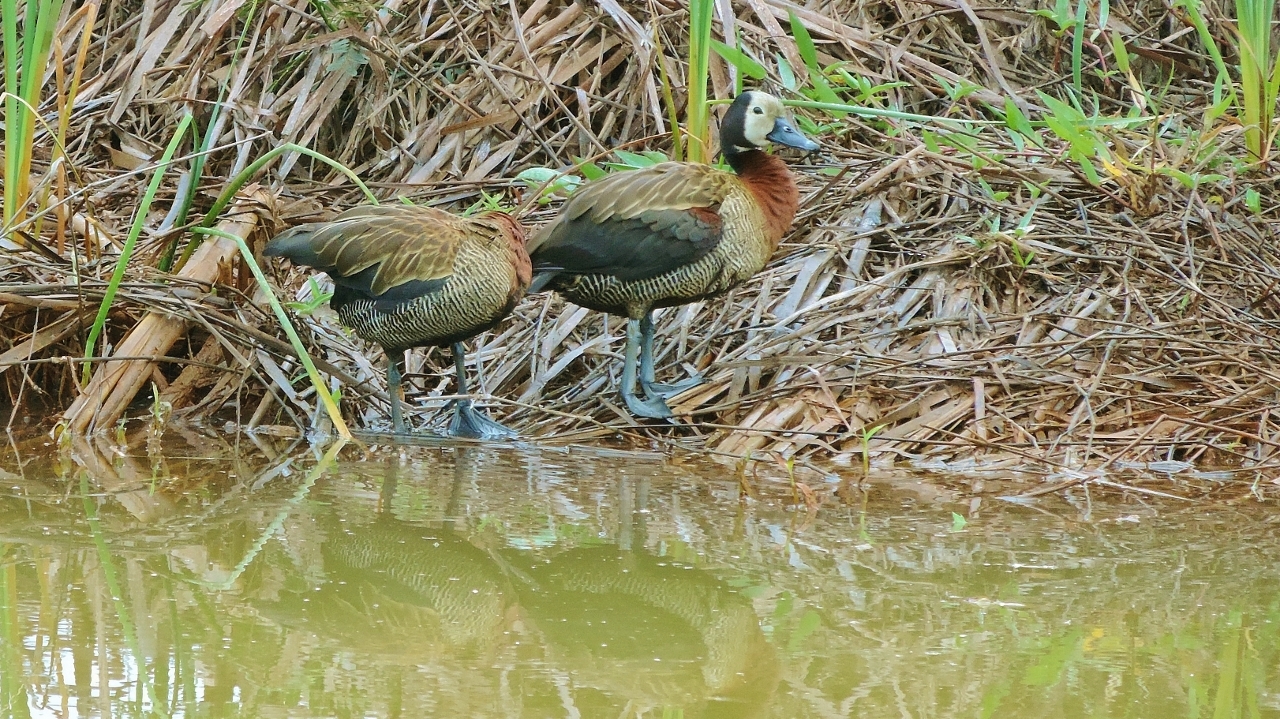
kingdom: Animalia
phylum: Chordata
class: Aves
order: Anseriformes
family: Anatidae
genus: Dendrocygna
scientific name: Dendrocygna viduata
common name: White-faced whistling duck
